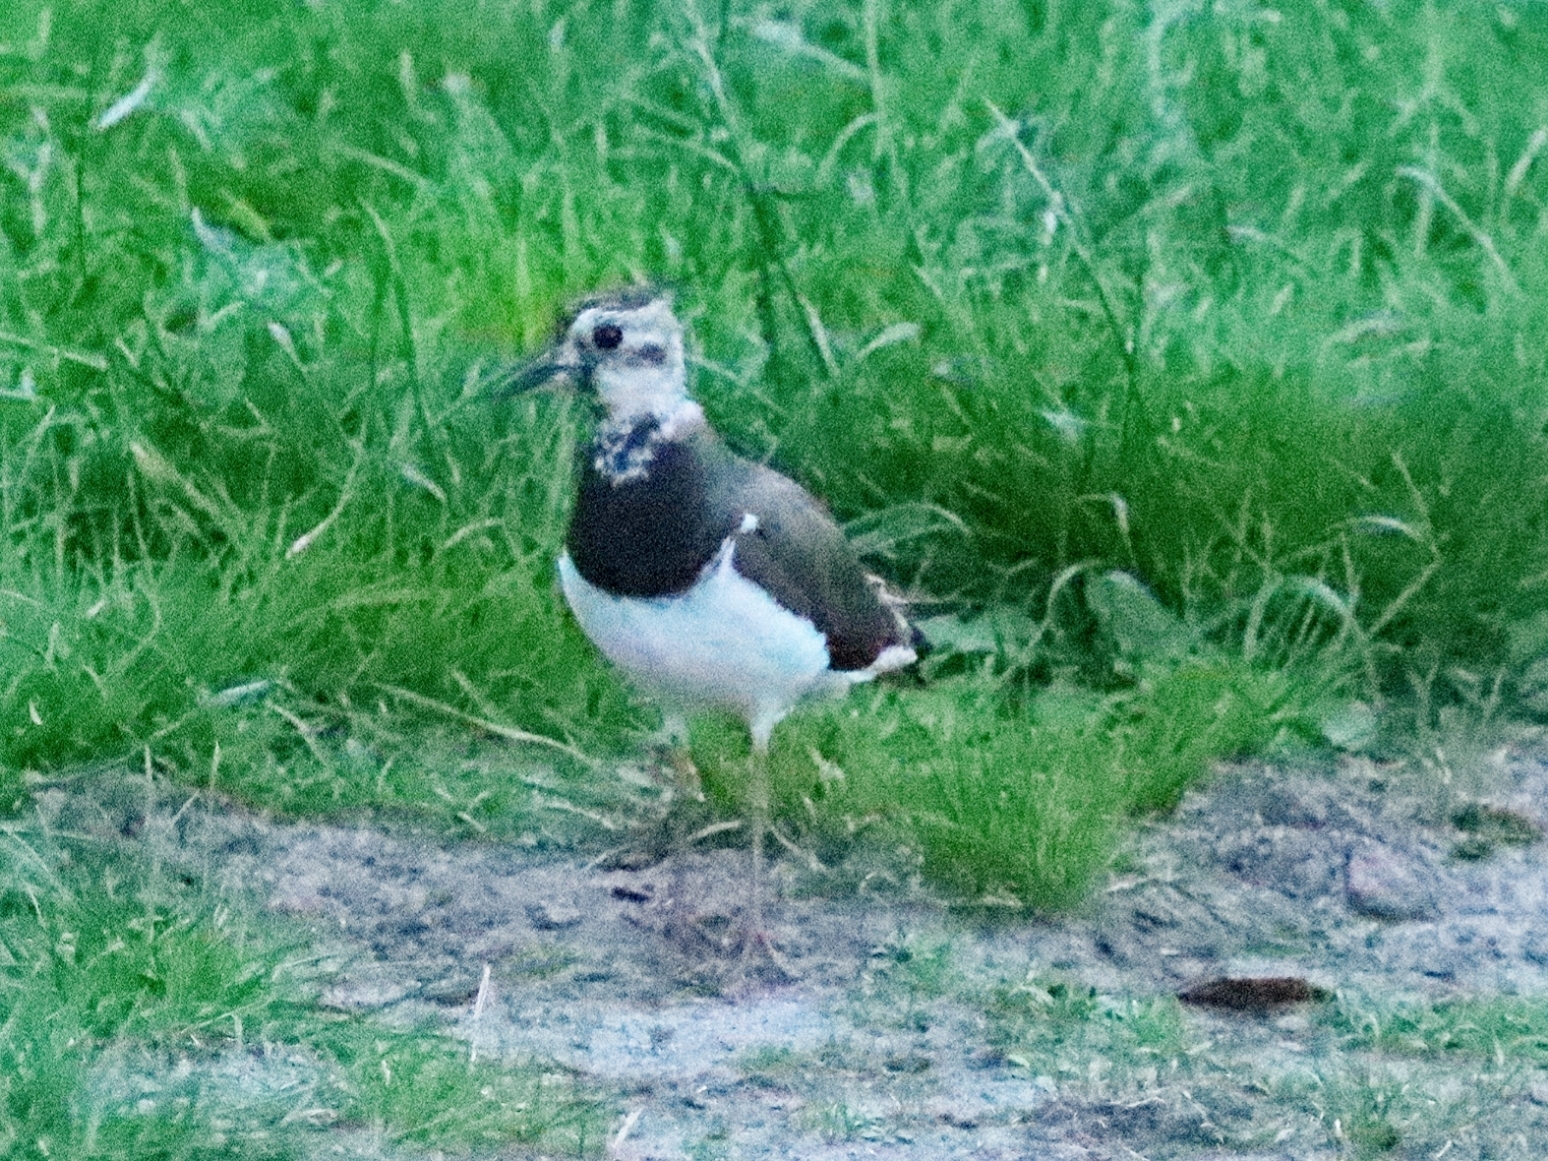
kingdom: Animalia
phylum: Chordata
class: Aves
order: Charadriiformes
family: Charadriidae
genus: Vanellus
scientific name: Vanellus vanellus
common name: Northern lapwing
